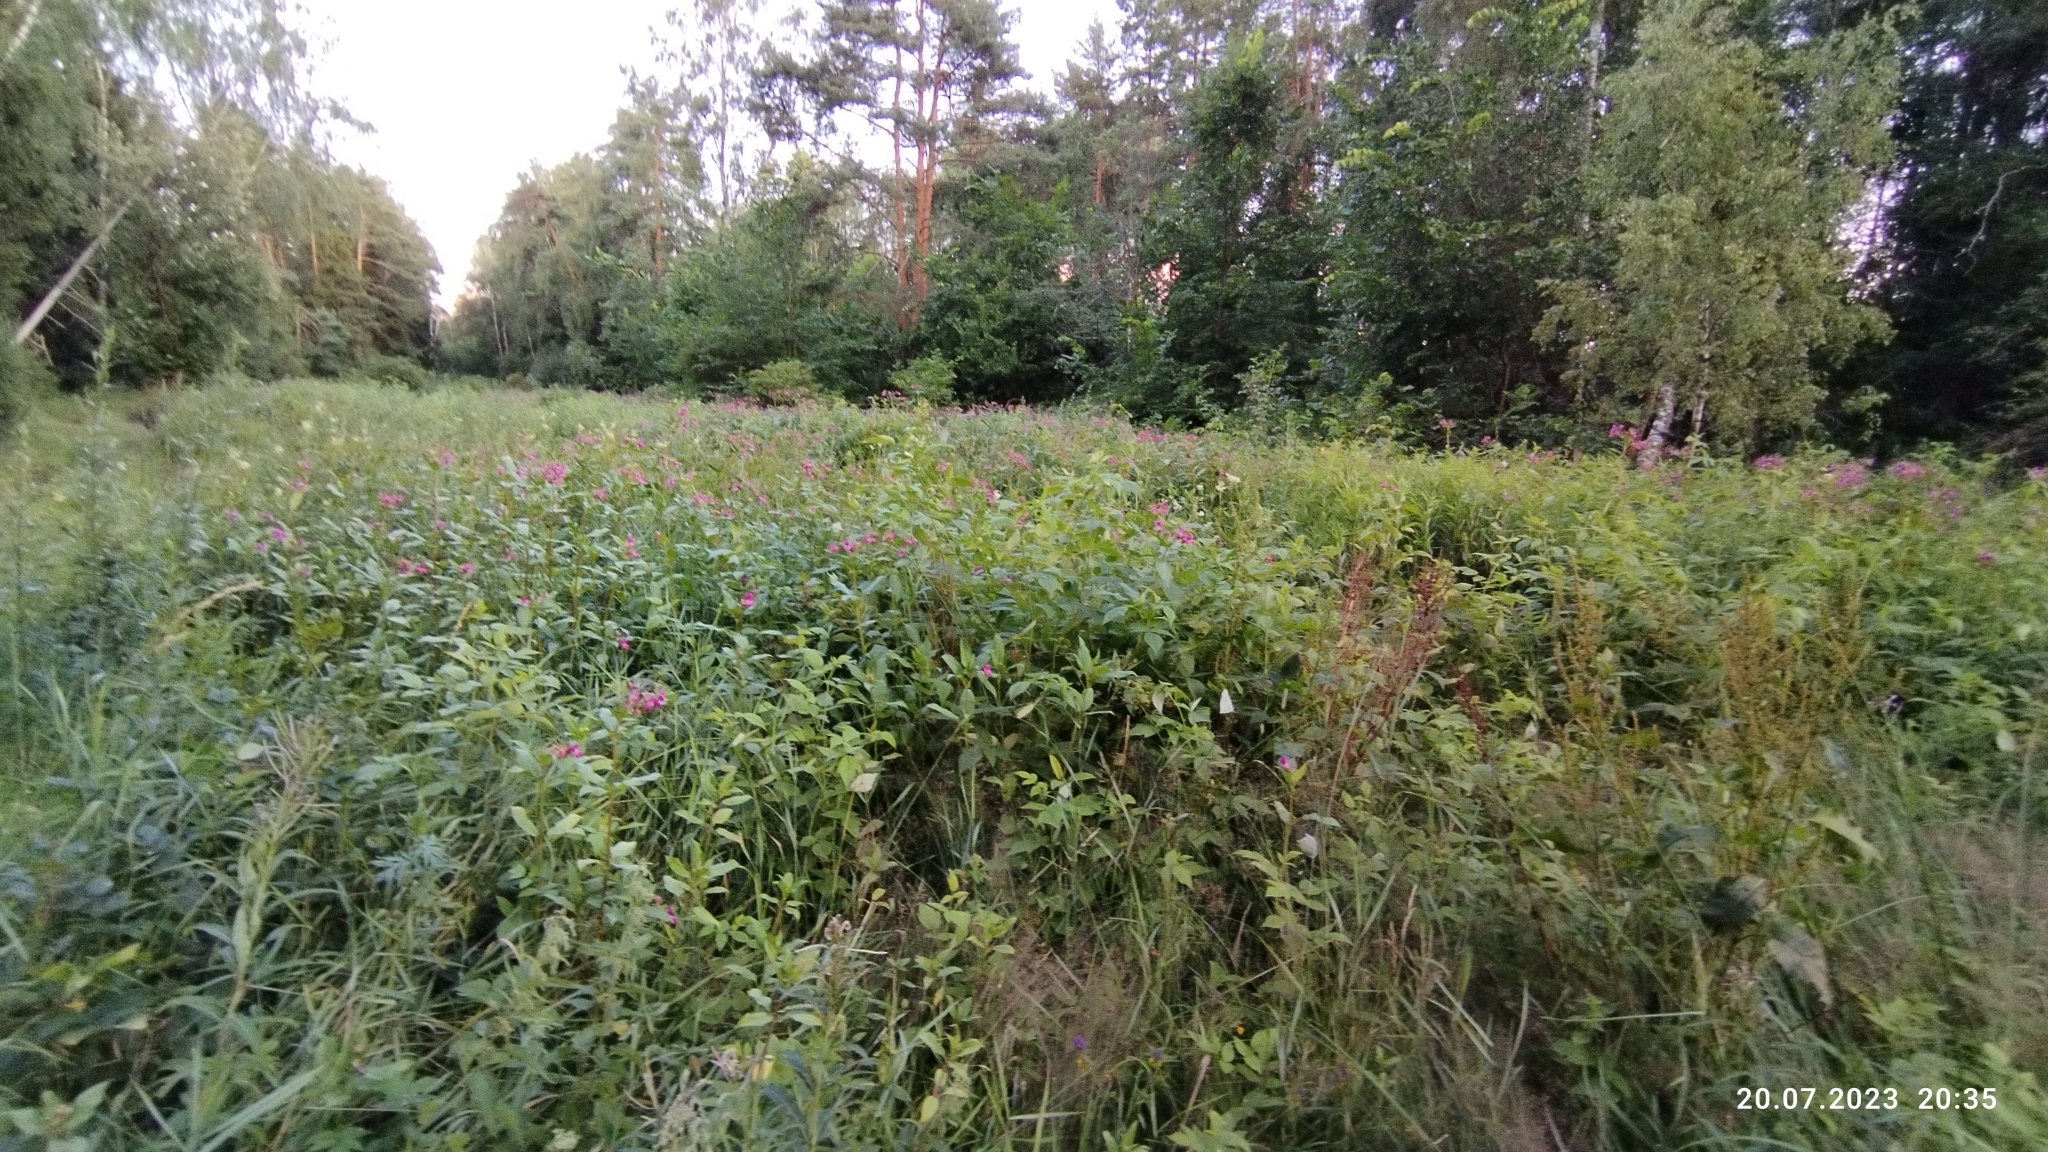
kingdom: Plantae
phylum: Tracheophyta
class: Magnoliopsida
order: Ericales
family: Balsaminaceae
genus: Impatiens
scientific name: Impatiens glandulifera
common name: Himalayan balsam
